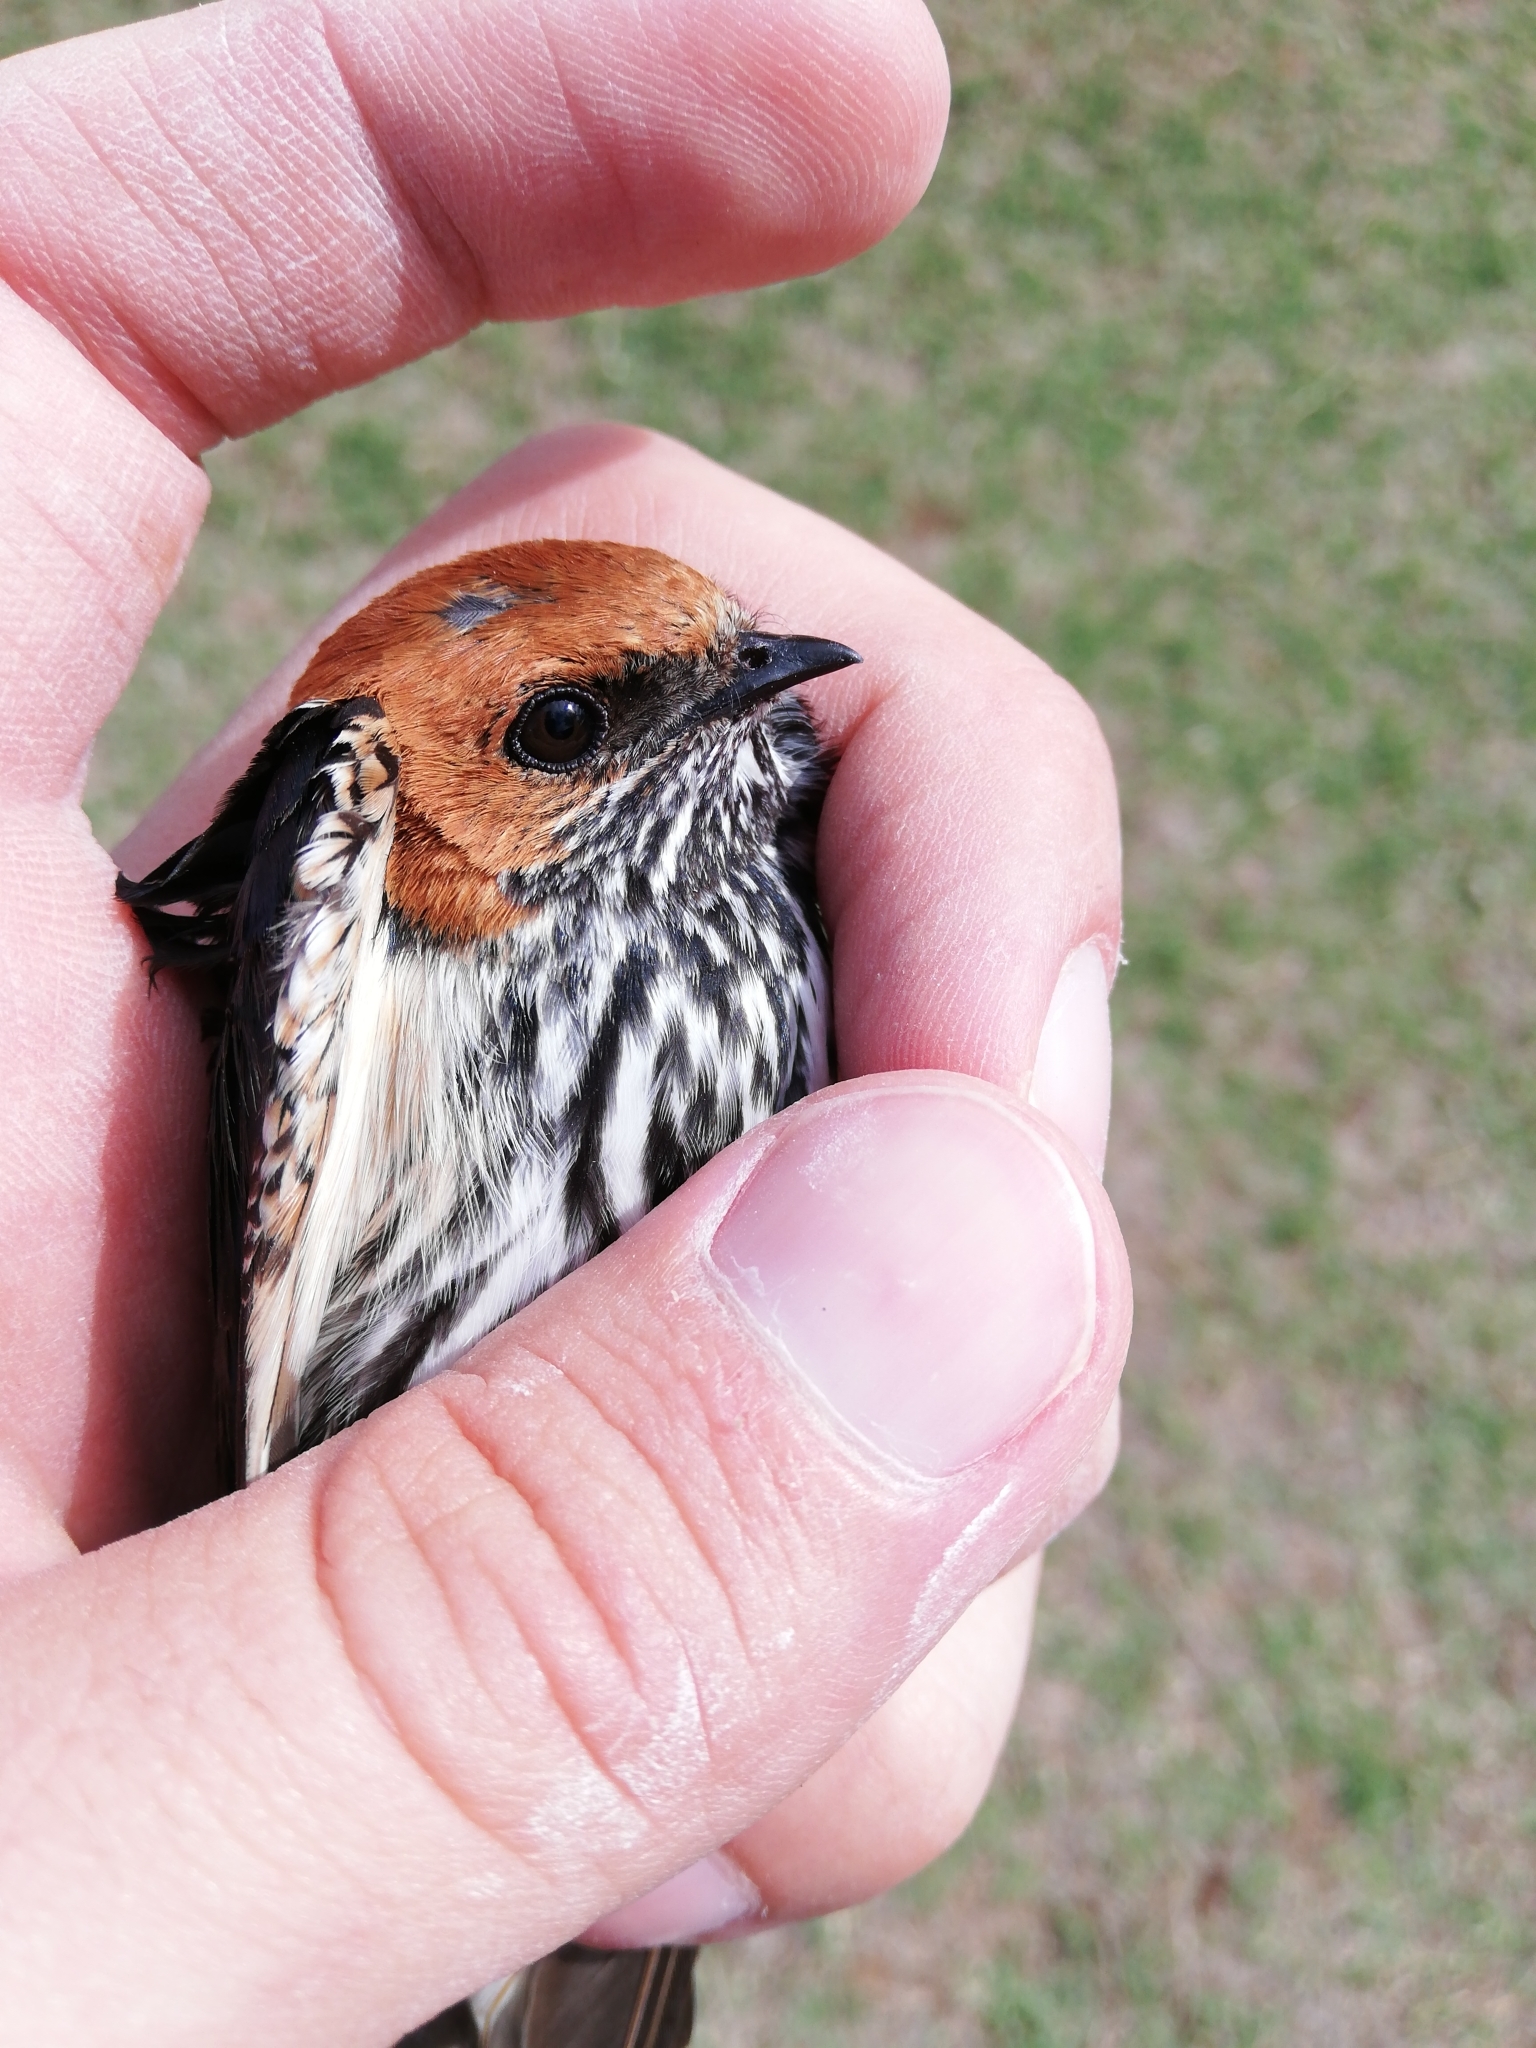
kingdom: Animalia
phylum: Chordata
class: Aves
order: Passeriformes
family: Hirundinidae
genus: Cecropis
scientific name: Cecropis abyssinica
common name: Lesser striped-swallow
